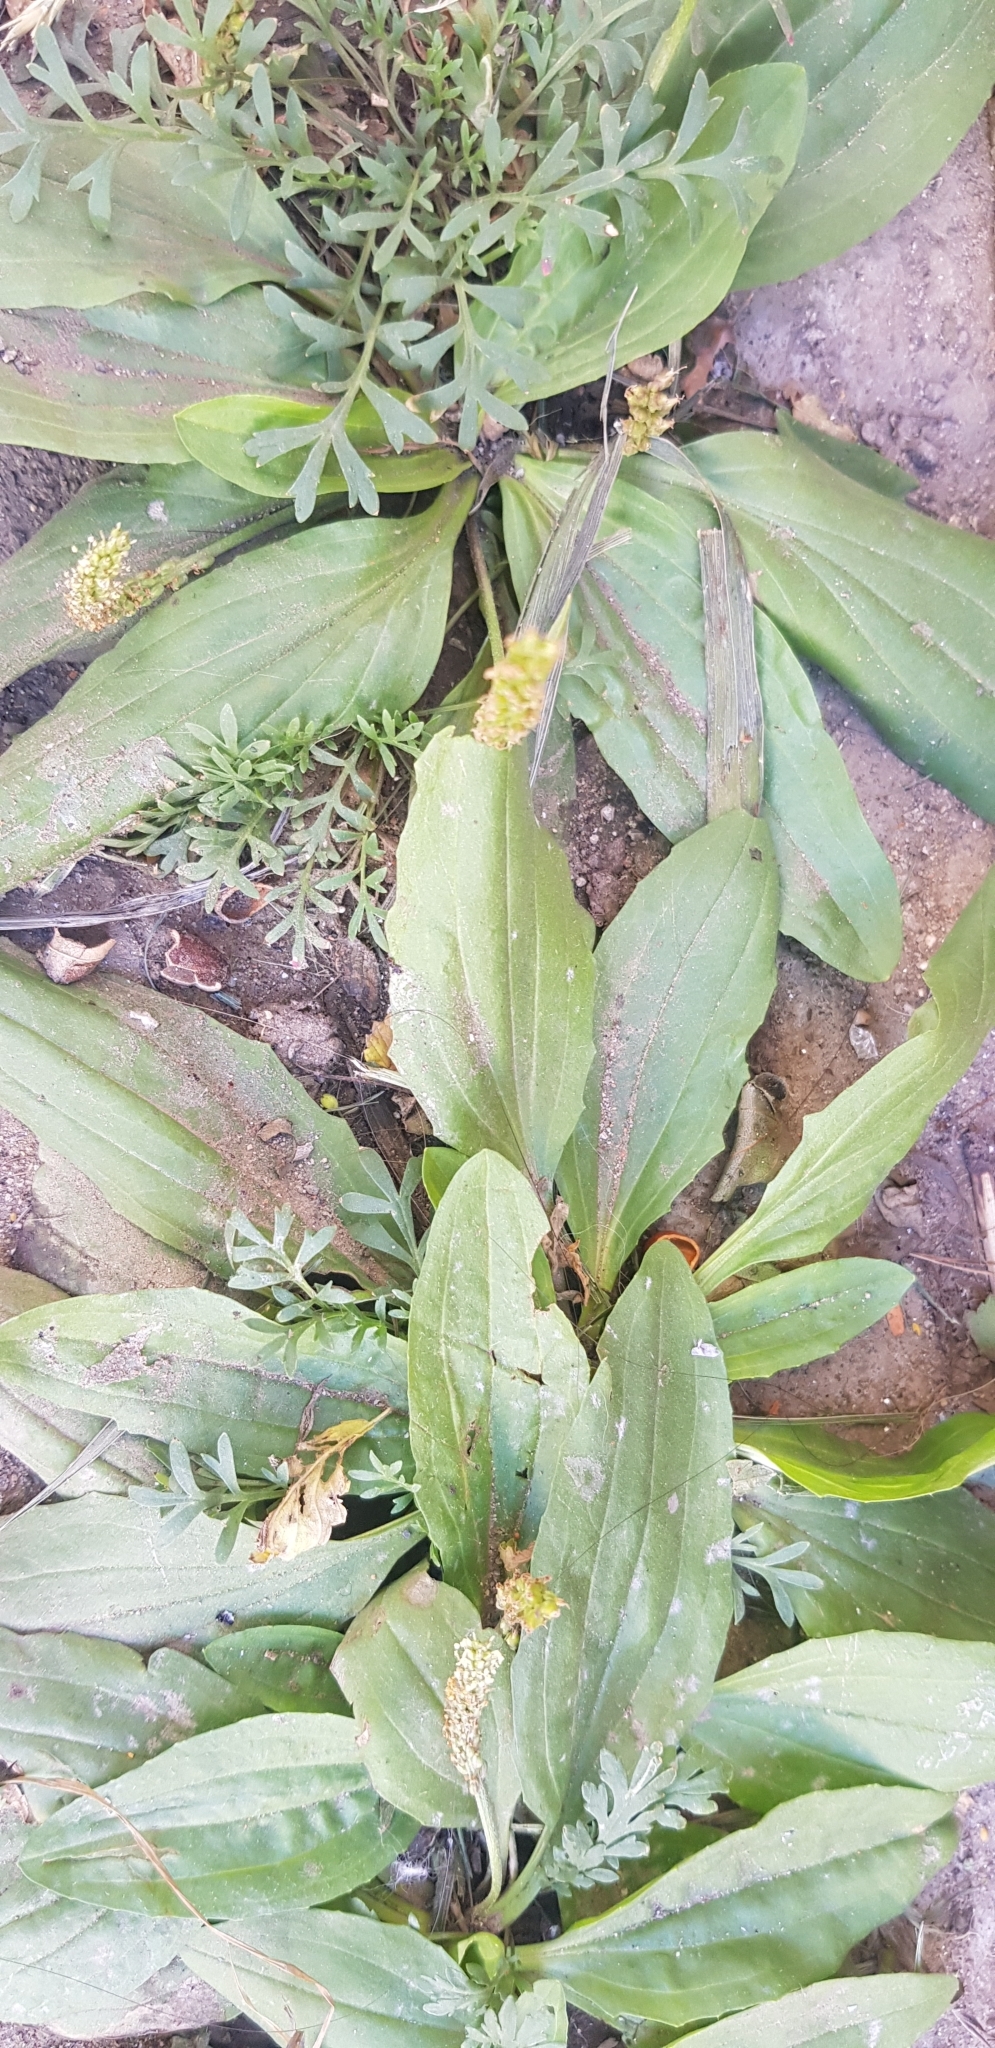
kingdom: Plantae
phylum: Tracheophyta
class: Magnoliopsida
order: Lamiales
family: Plantaginaceae
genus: Plantago
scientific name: Plantago depressa
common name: Depressed plantain
